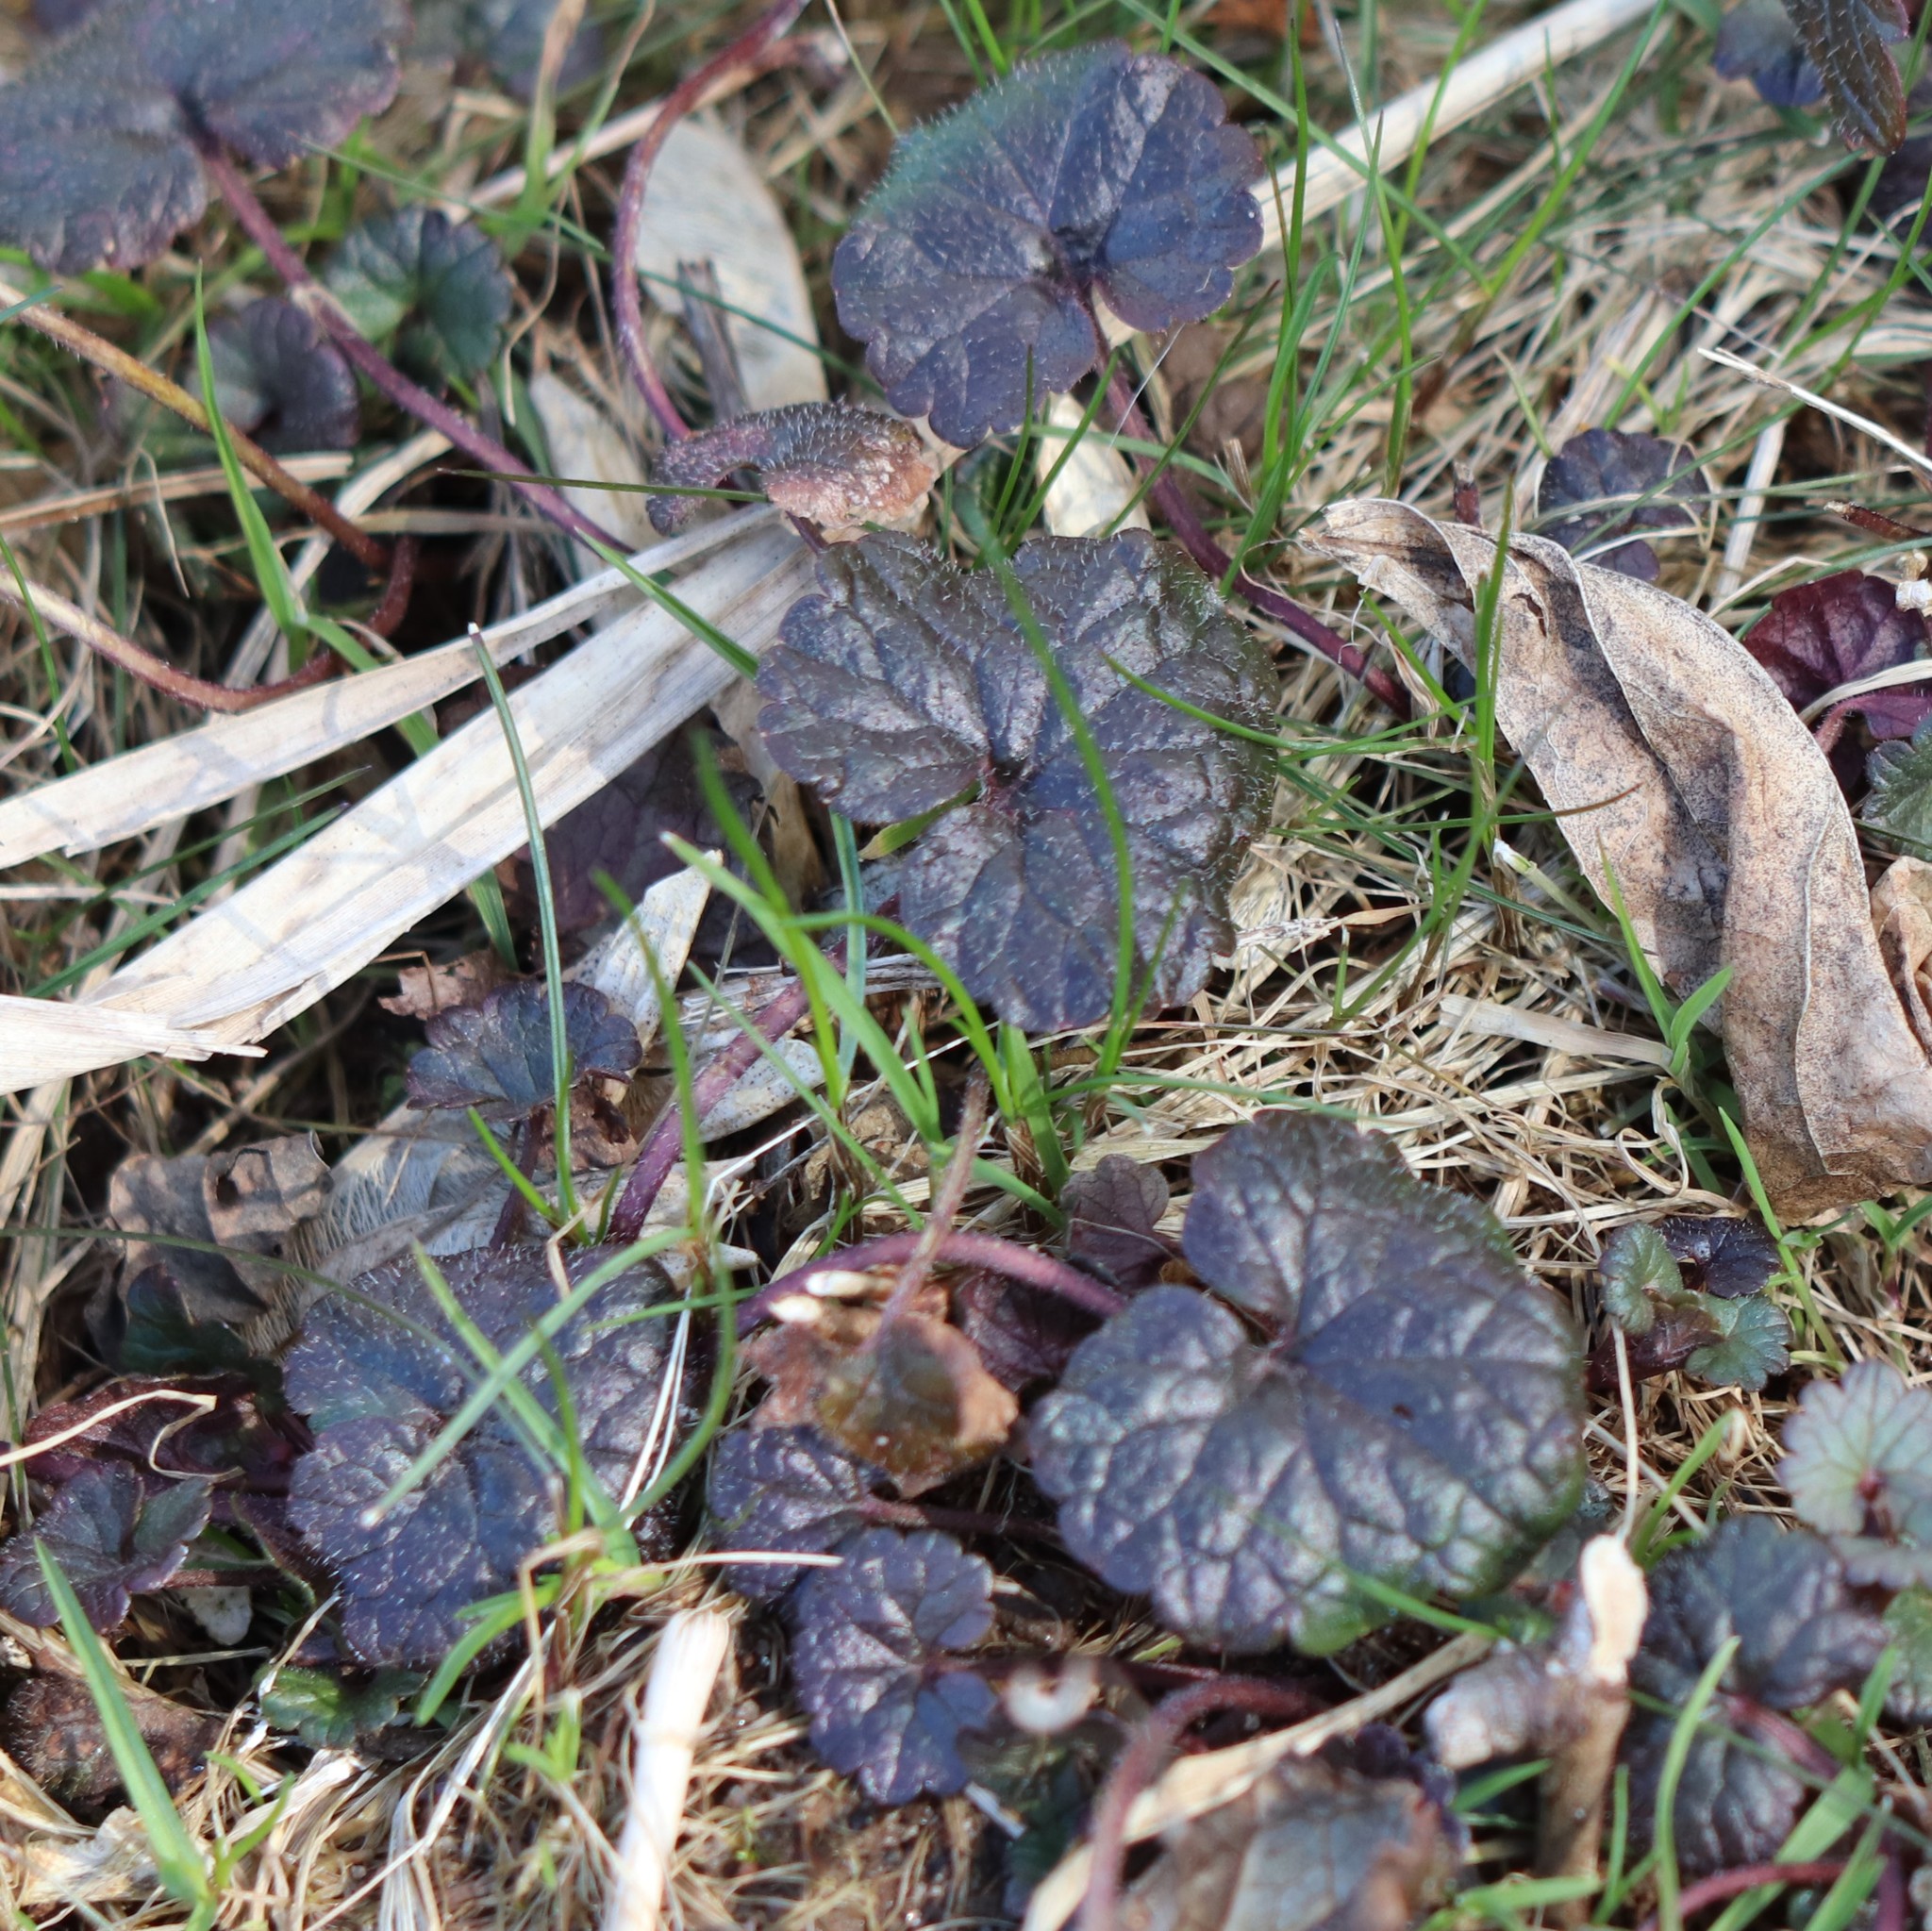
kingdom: Plantae
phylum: Tracheophyta
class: Magnoliopsida
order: Lamiales
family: Lamiaceae
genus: Glechoma
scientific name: Glechoma hederacea
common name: Ground ivy
